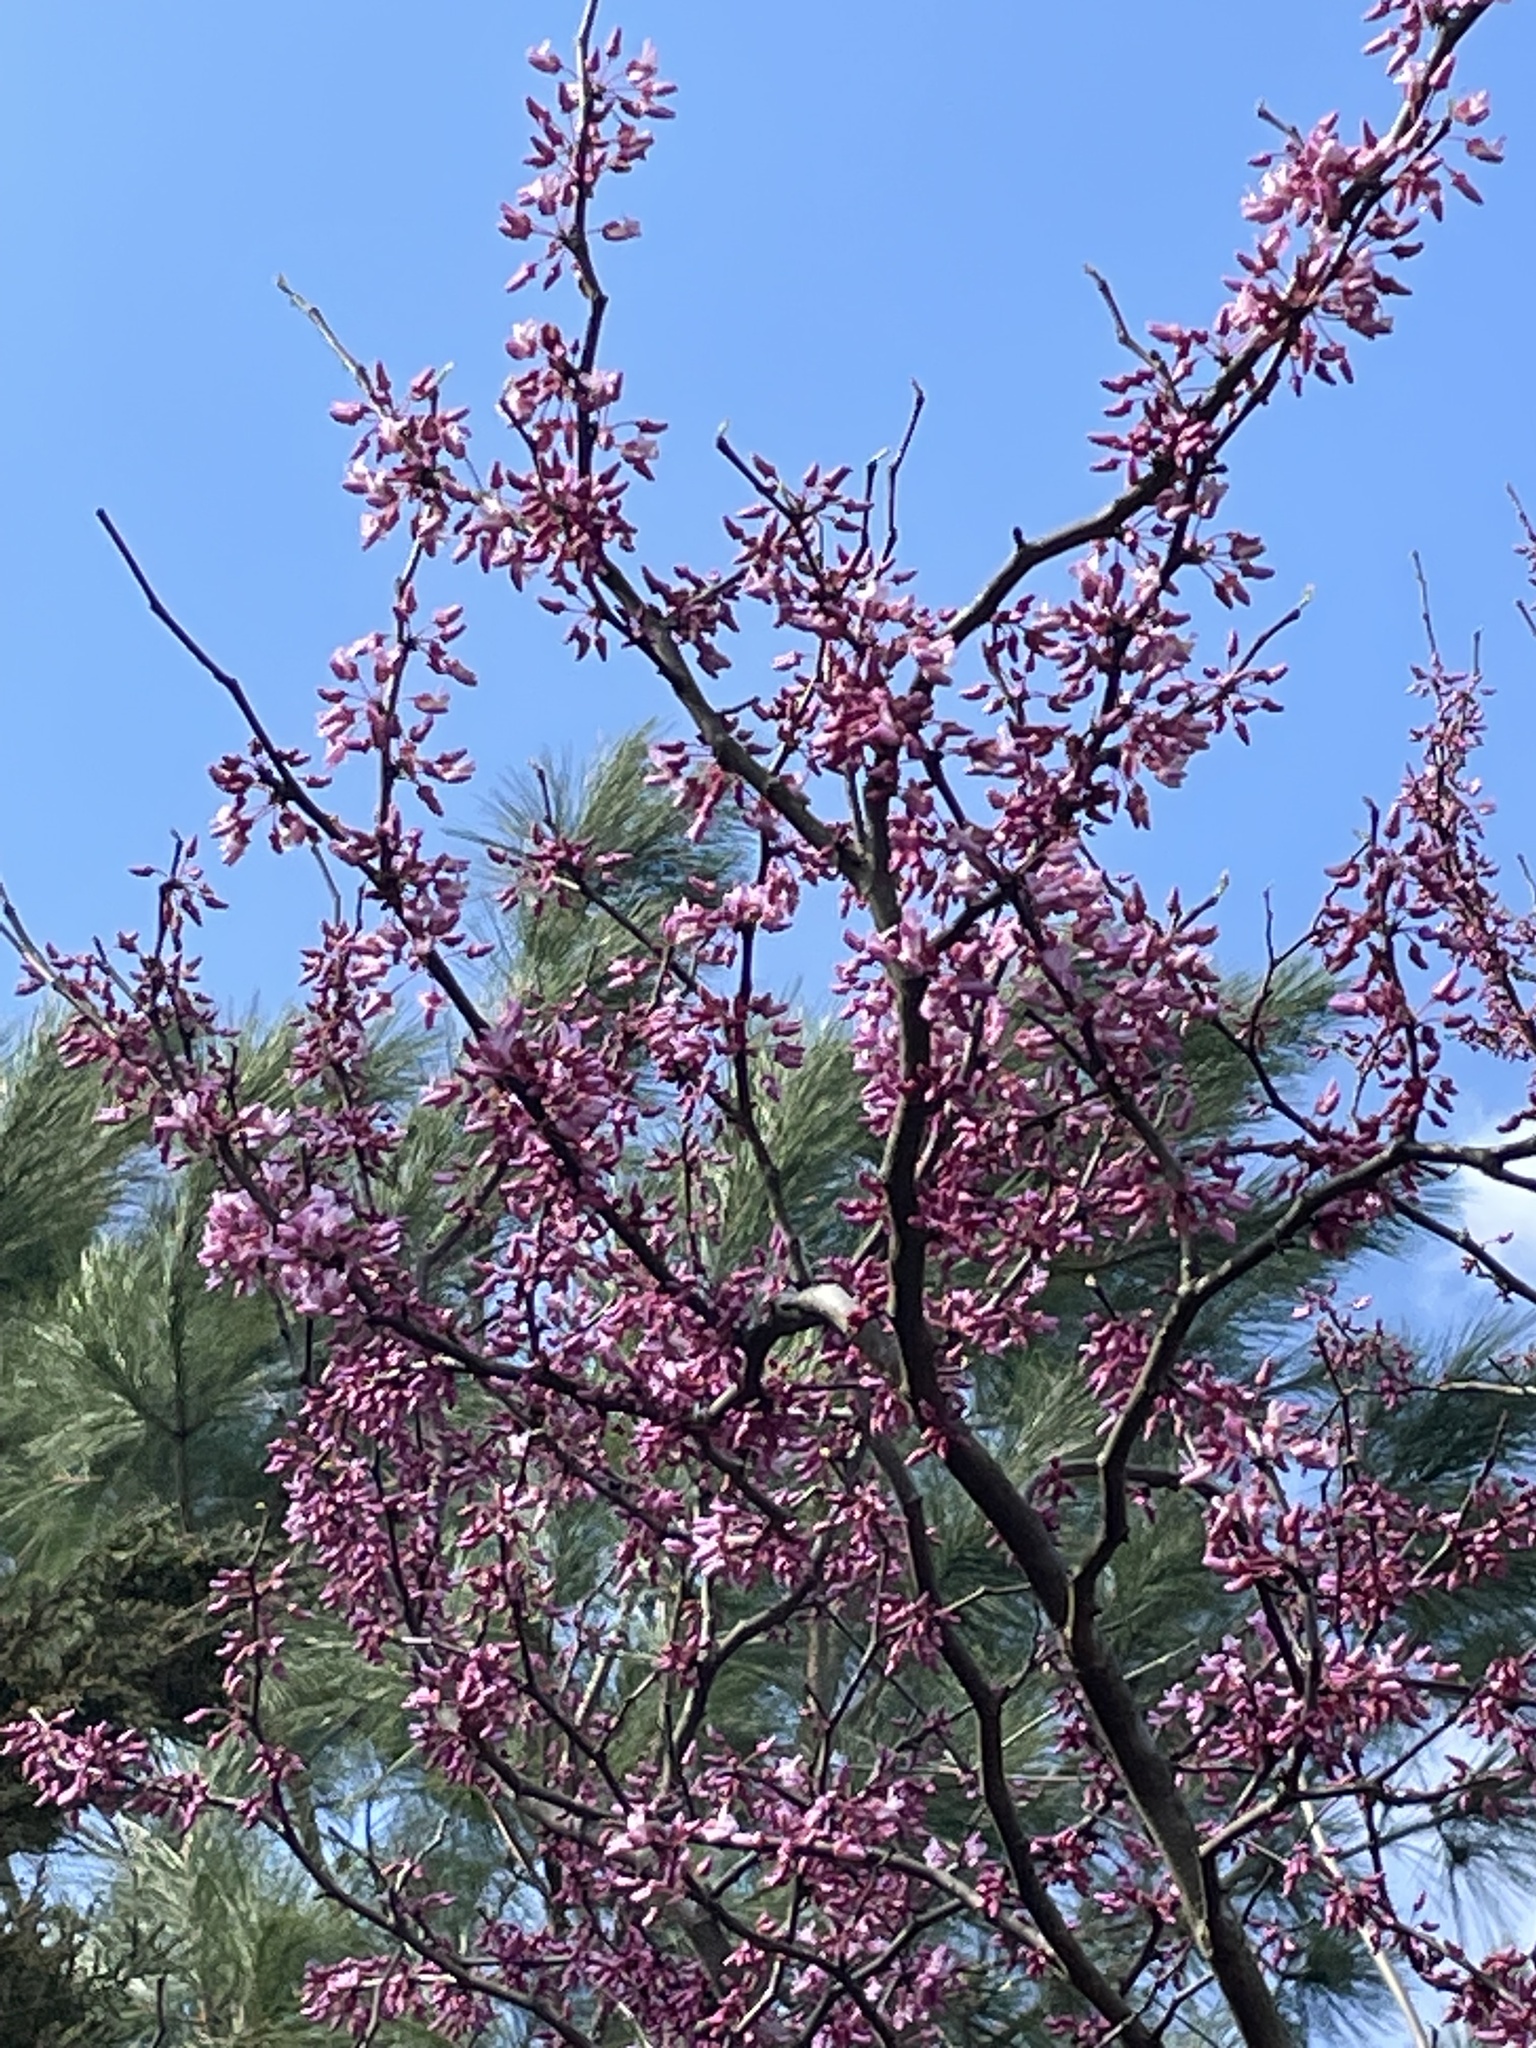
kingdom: Plantae
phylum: Tracheophyta
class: Magnoliopsida
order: Fabales
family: Fabaceae
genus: Cercis
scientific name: Cercis canadensis
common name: Eastern redbud
